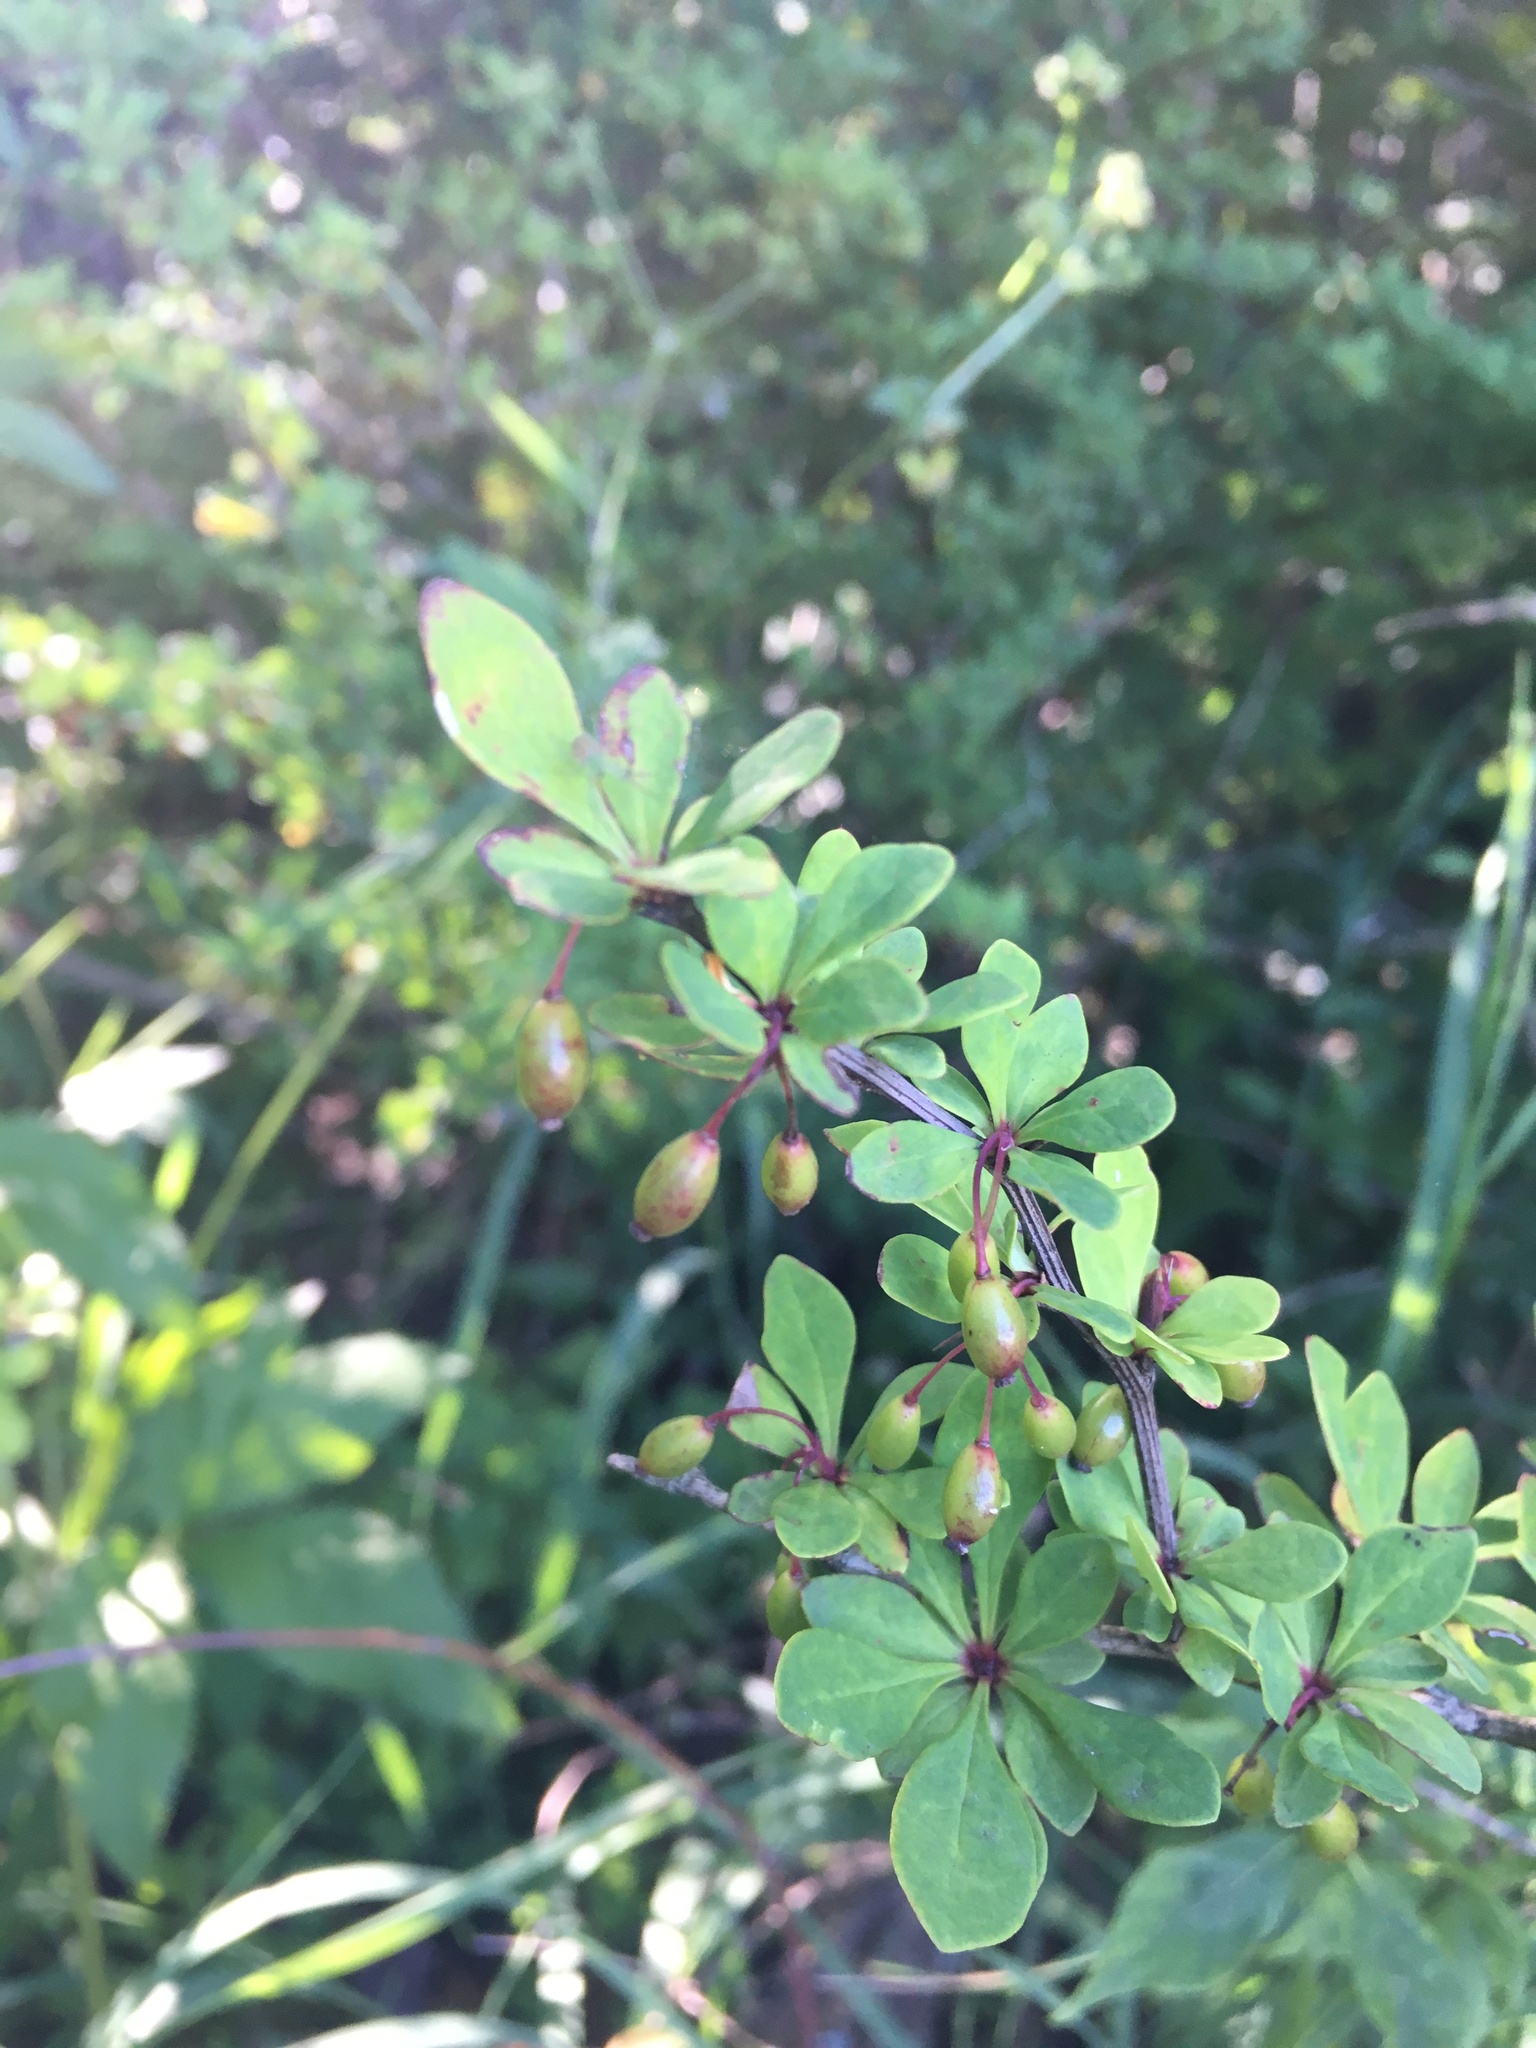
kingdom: Plantae
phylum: Tracheophyta
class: Magnoliopsida
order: Ranunculales
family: Berberidaceae
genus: Berberis
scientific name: Berberis thunbergii
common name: Japanese barberry
